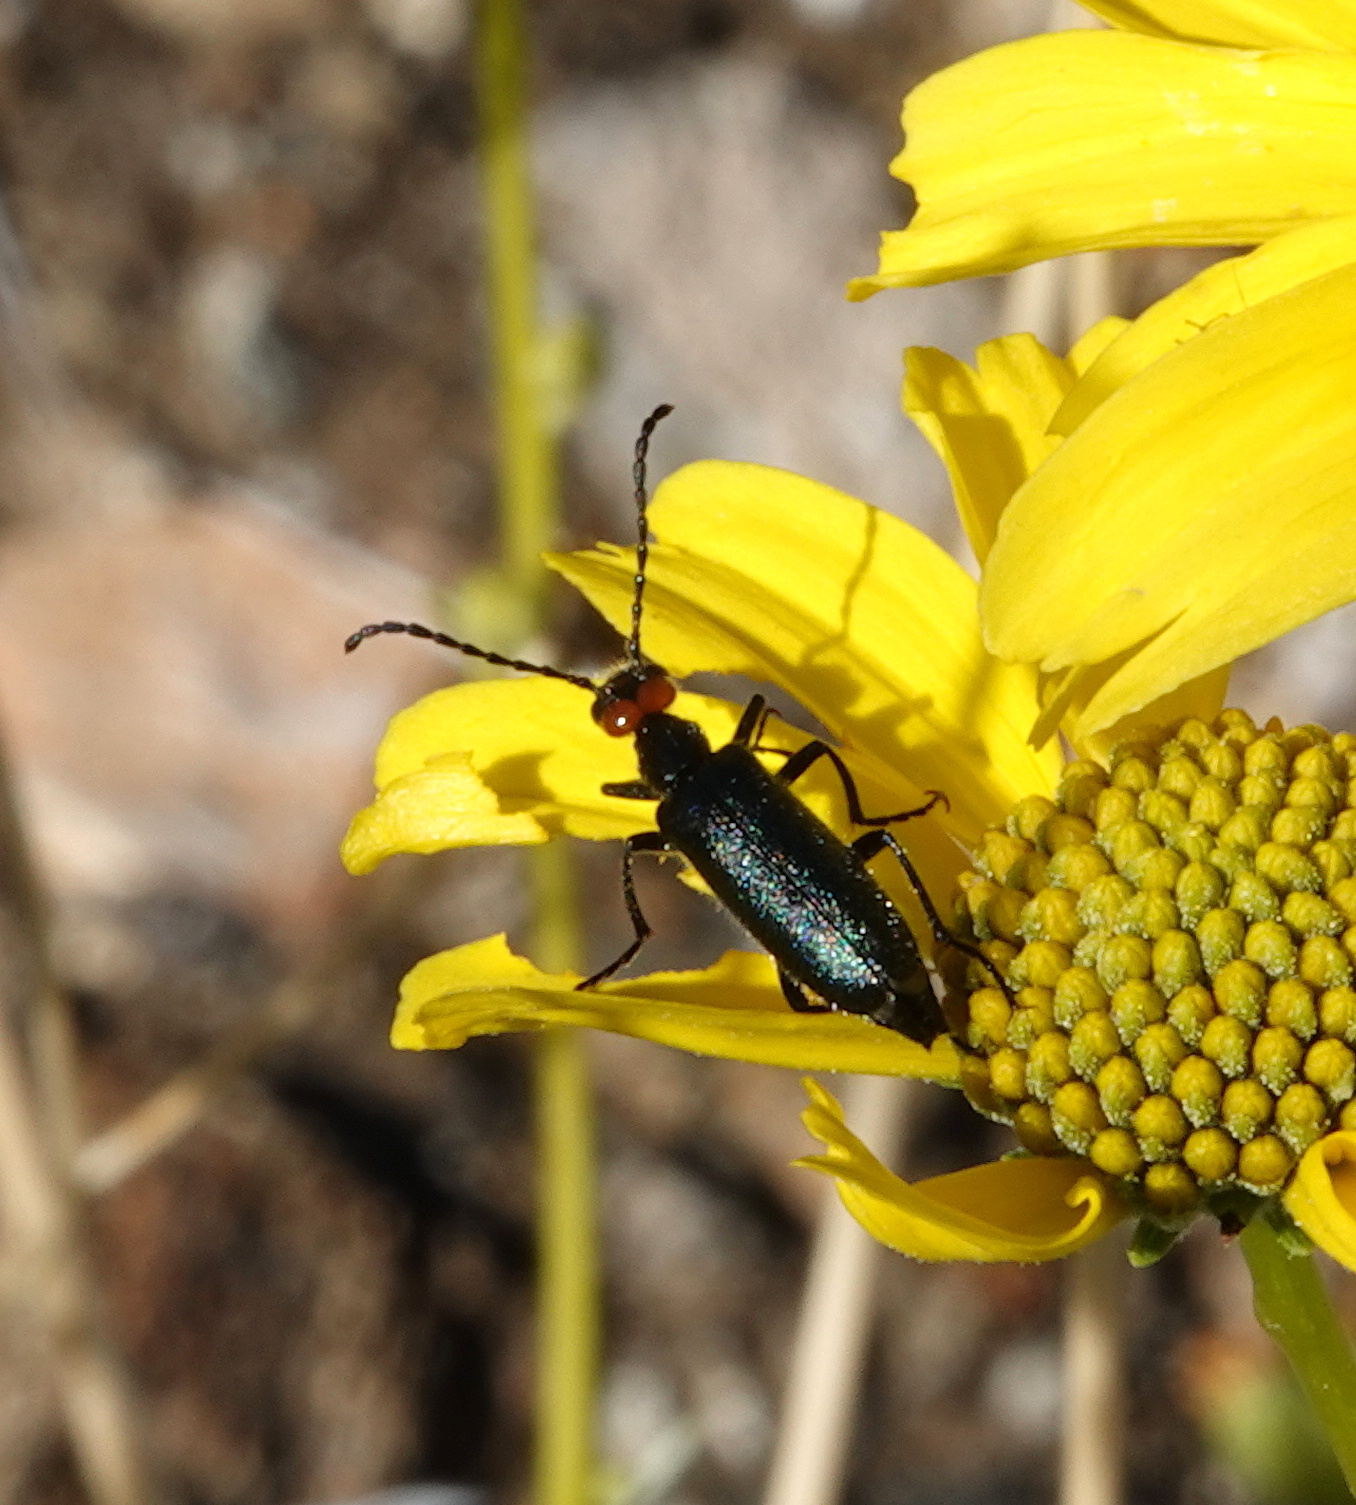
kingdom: Animalia
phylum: Arthropoda
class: Insecta
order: Coleoptera
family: Meloidae
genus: Lytta
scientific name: Lytta auriculata
